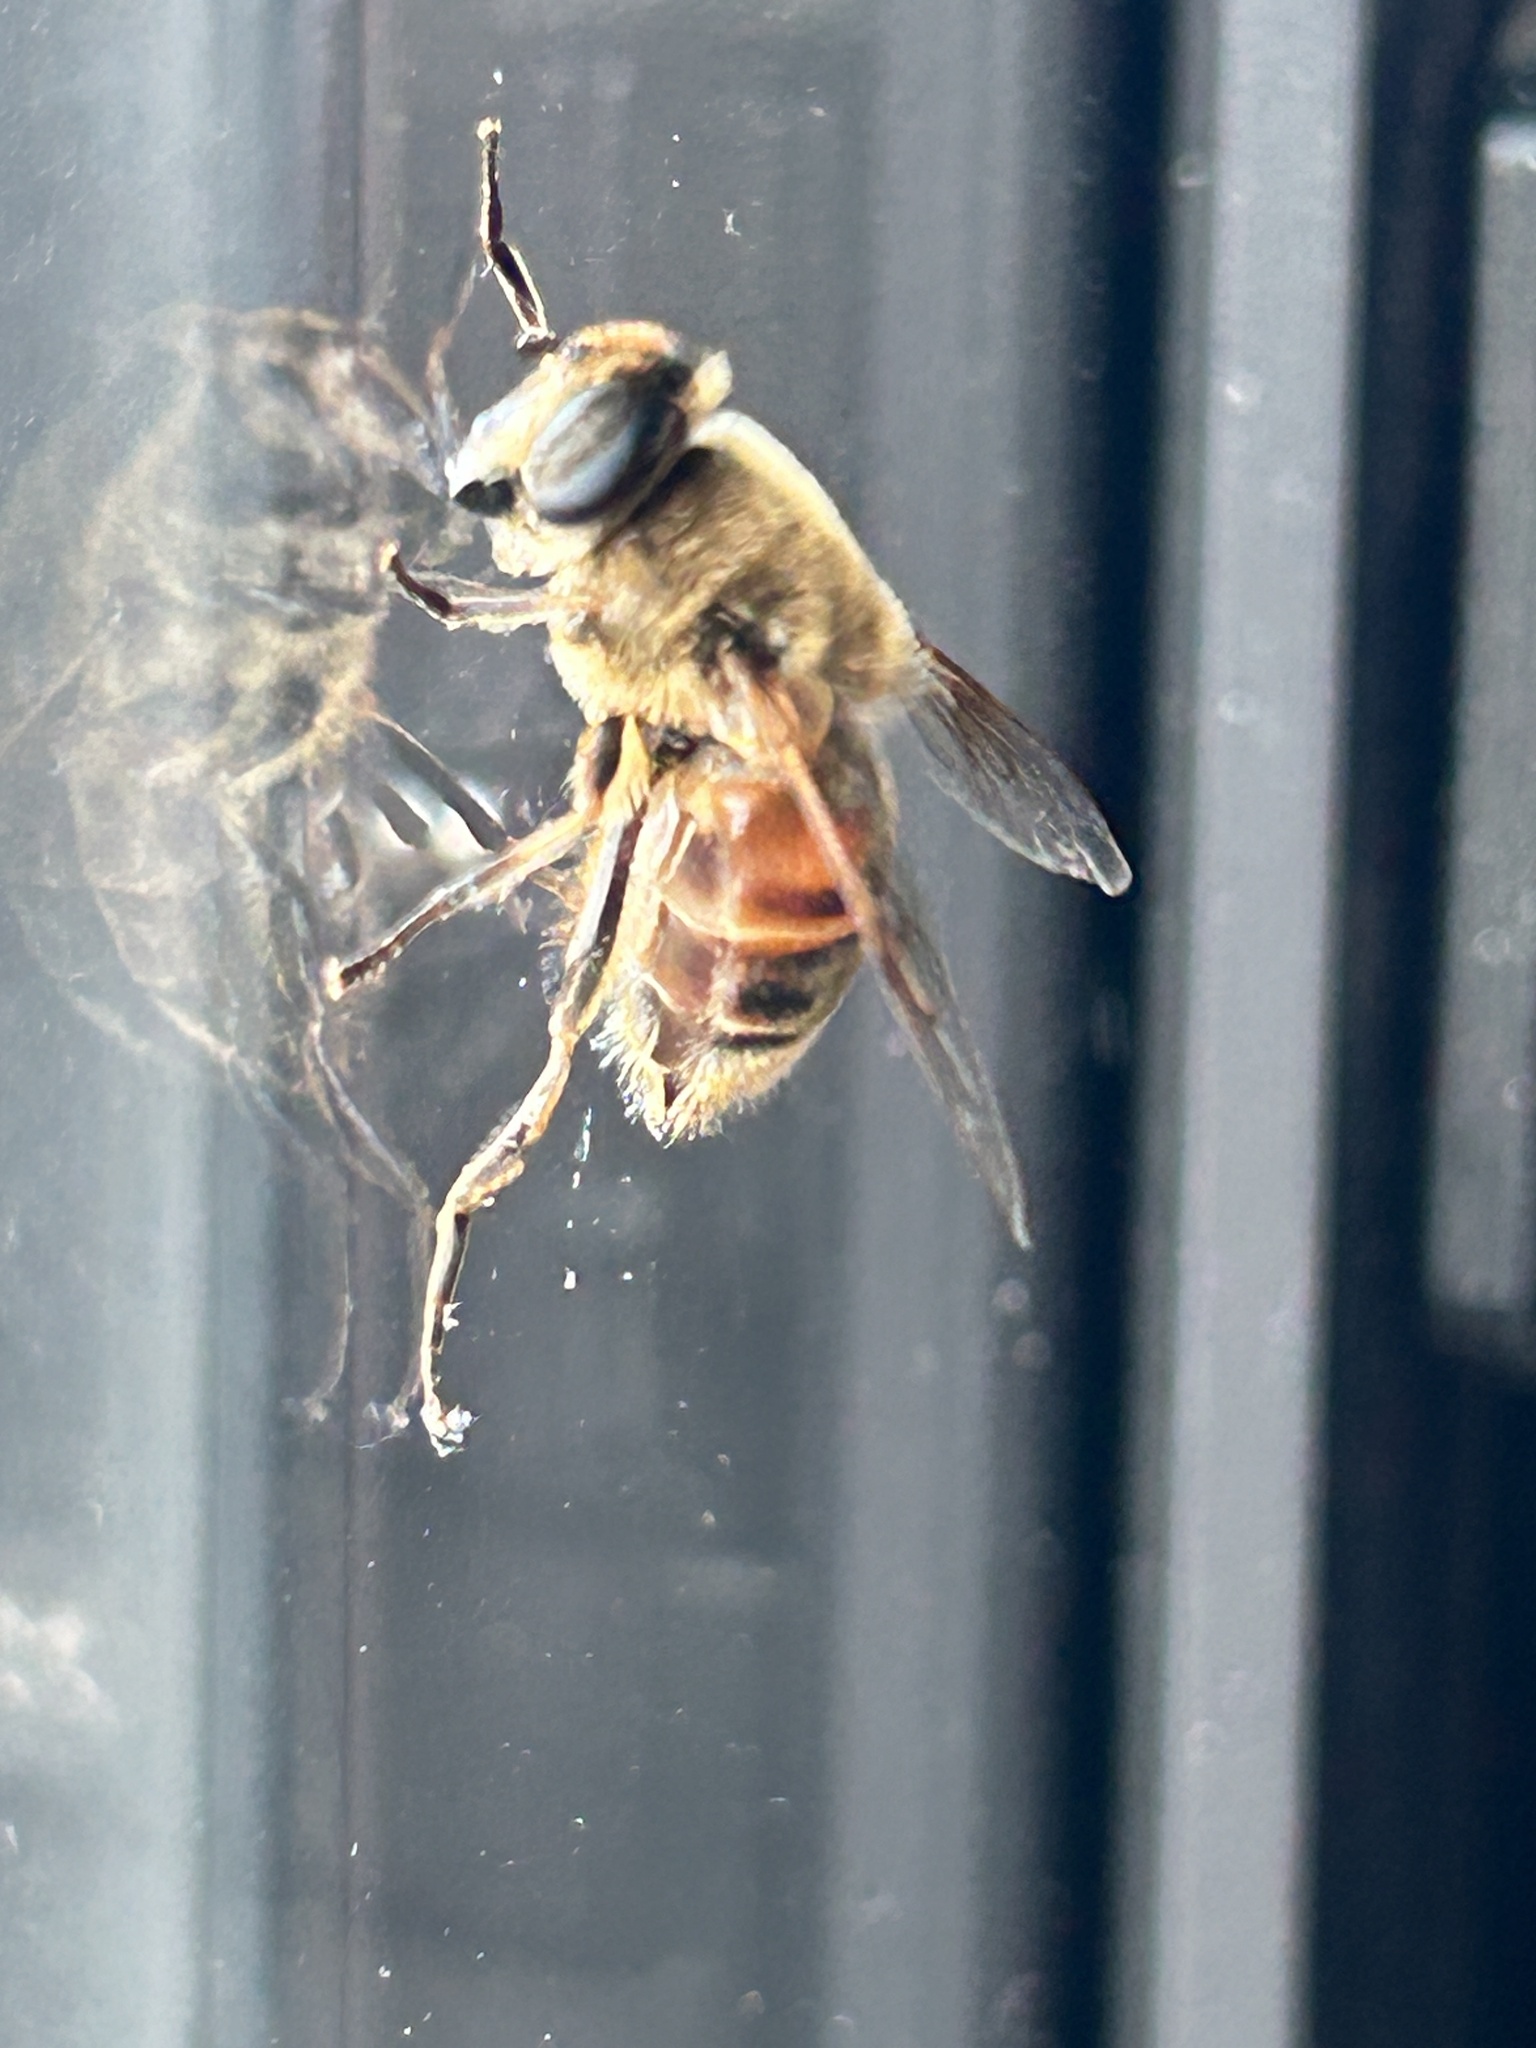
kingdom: Animalia
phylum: Arthropoda
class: Insecta
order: Diptera
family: Syrphidae
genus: Eristalis
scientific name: Eristalis tenax
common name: Drone fly
